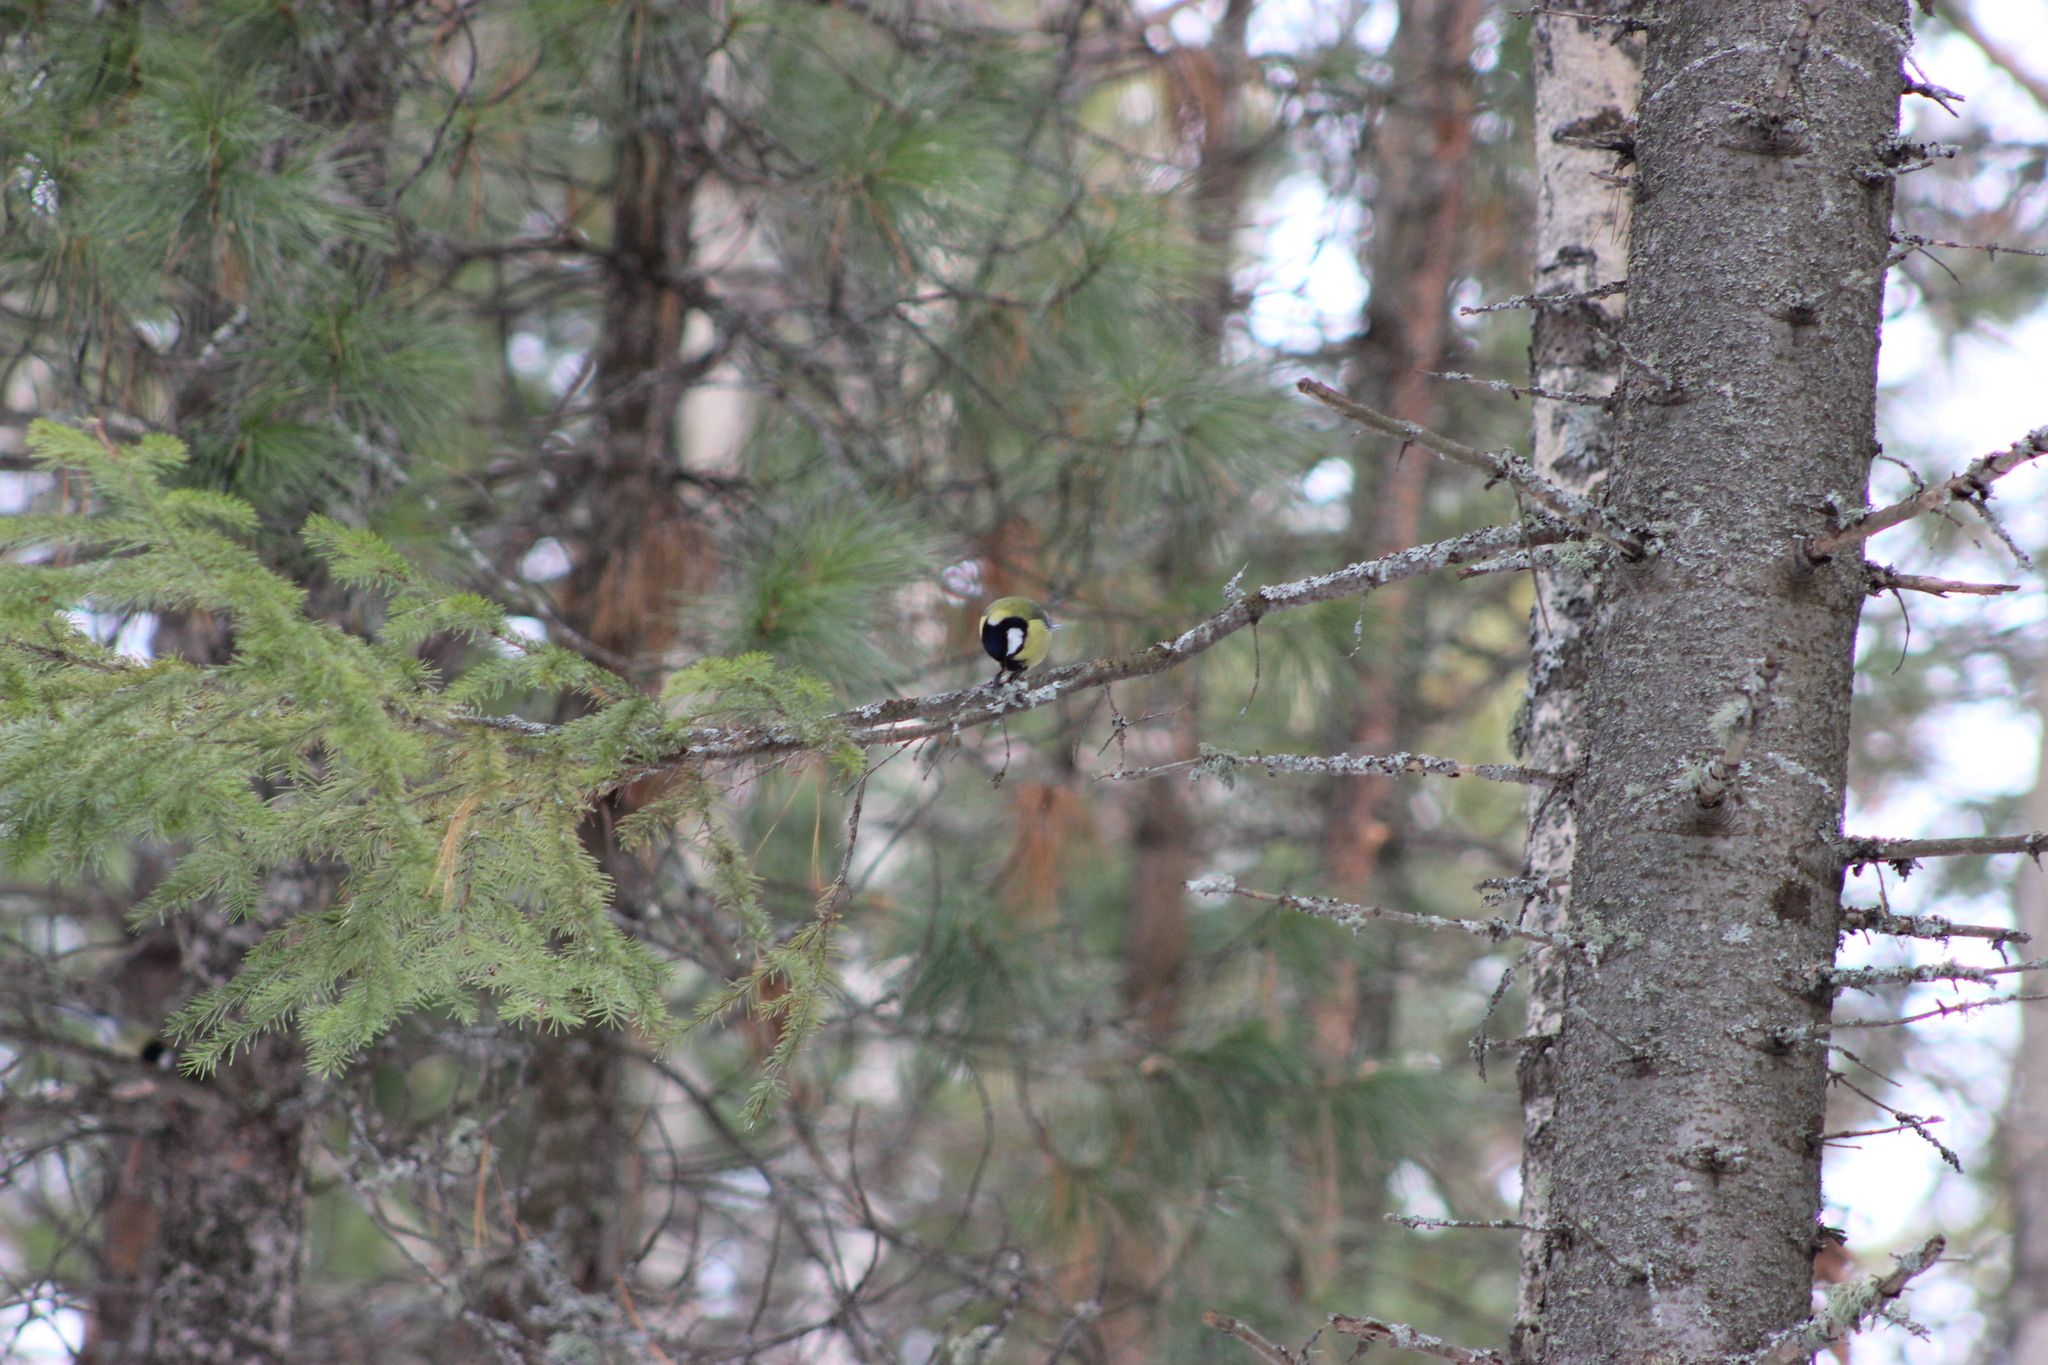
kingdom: Animalia
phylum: Chordata
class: Aves
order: Passeriformes
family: Paridae
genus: Parus
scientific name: Parus major
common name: Great tit
